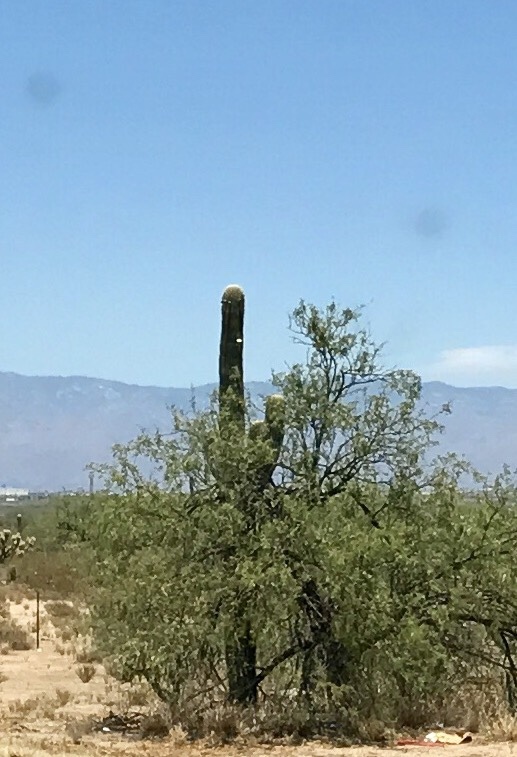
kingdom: Plantae
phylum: Tracheophyta
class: Magnoliopsida
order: Caryophyllales
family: Cactaceae
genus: Carnegiea
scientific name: Carnegiea gigantea
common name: Saguaro
